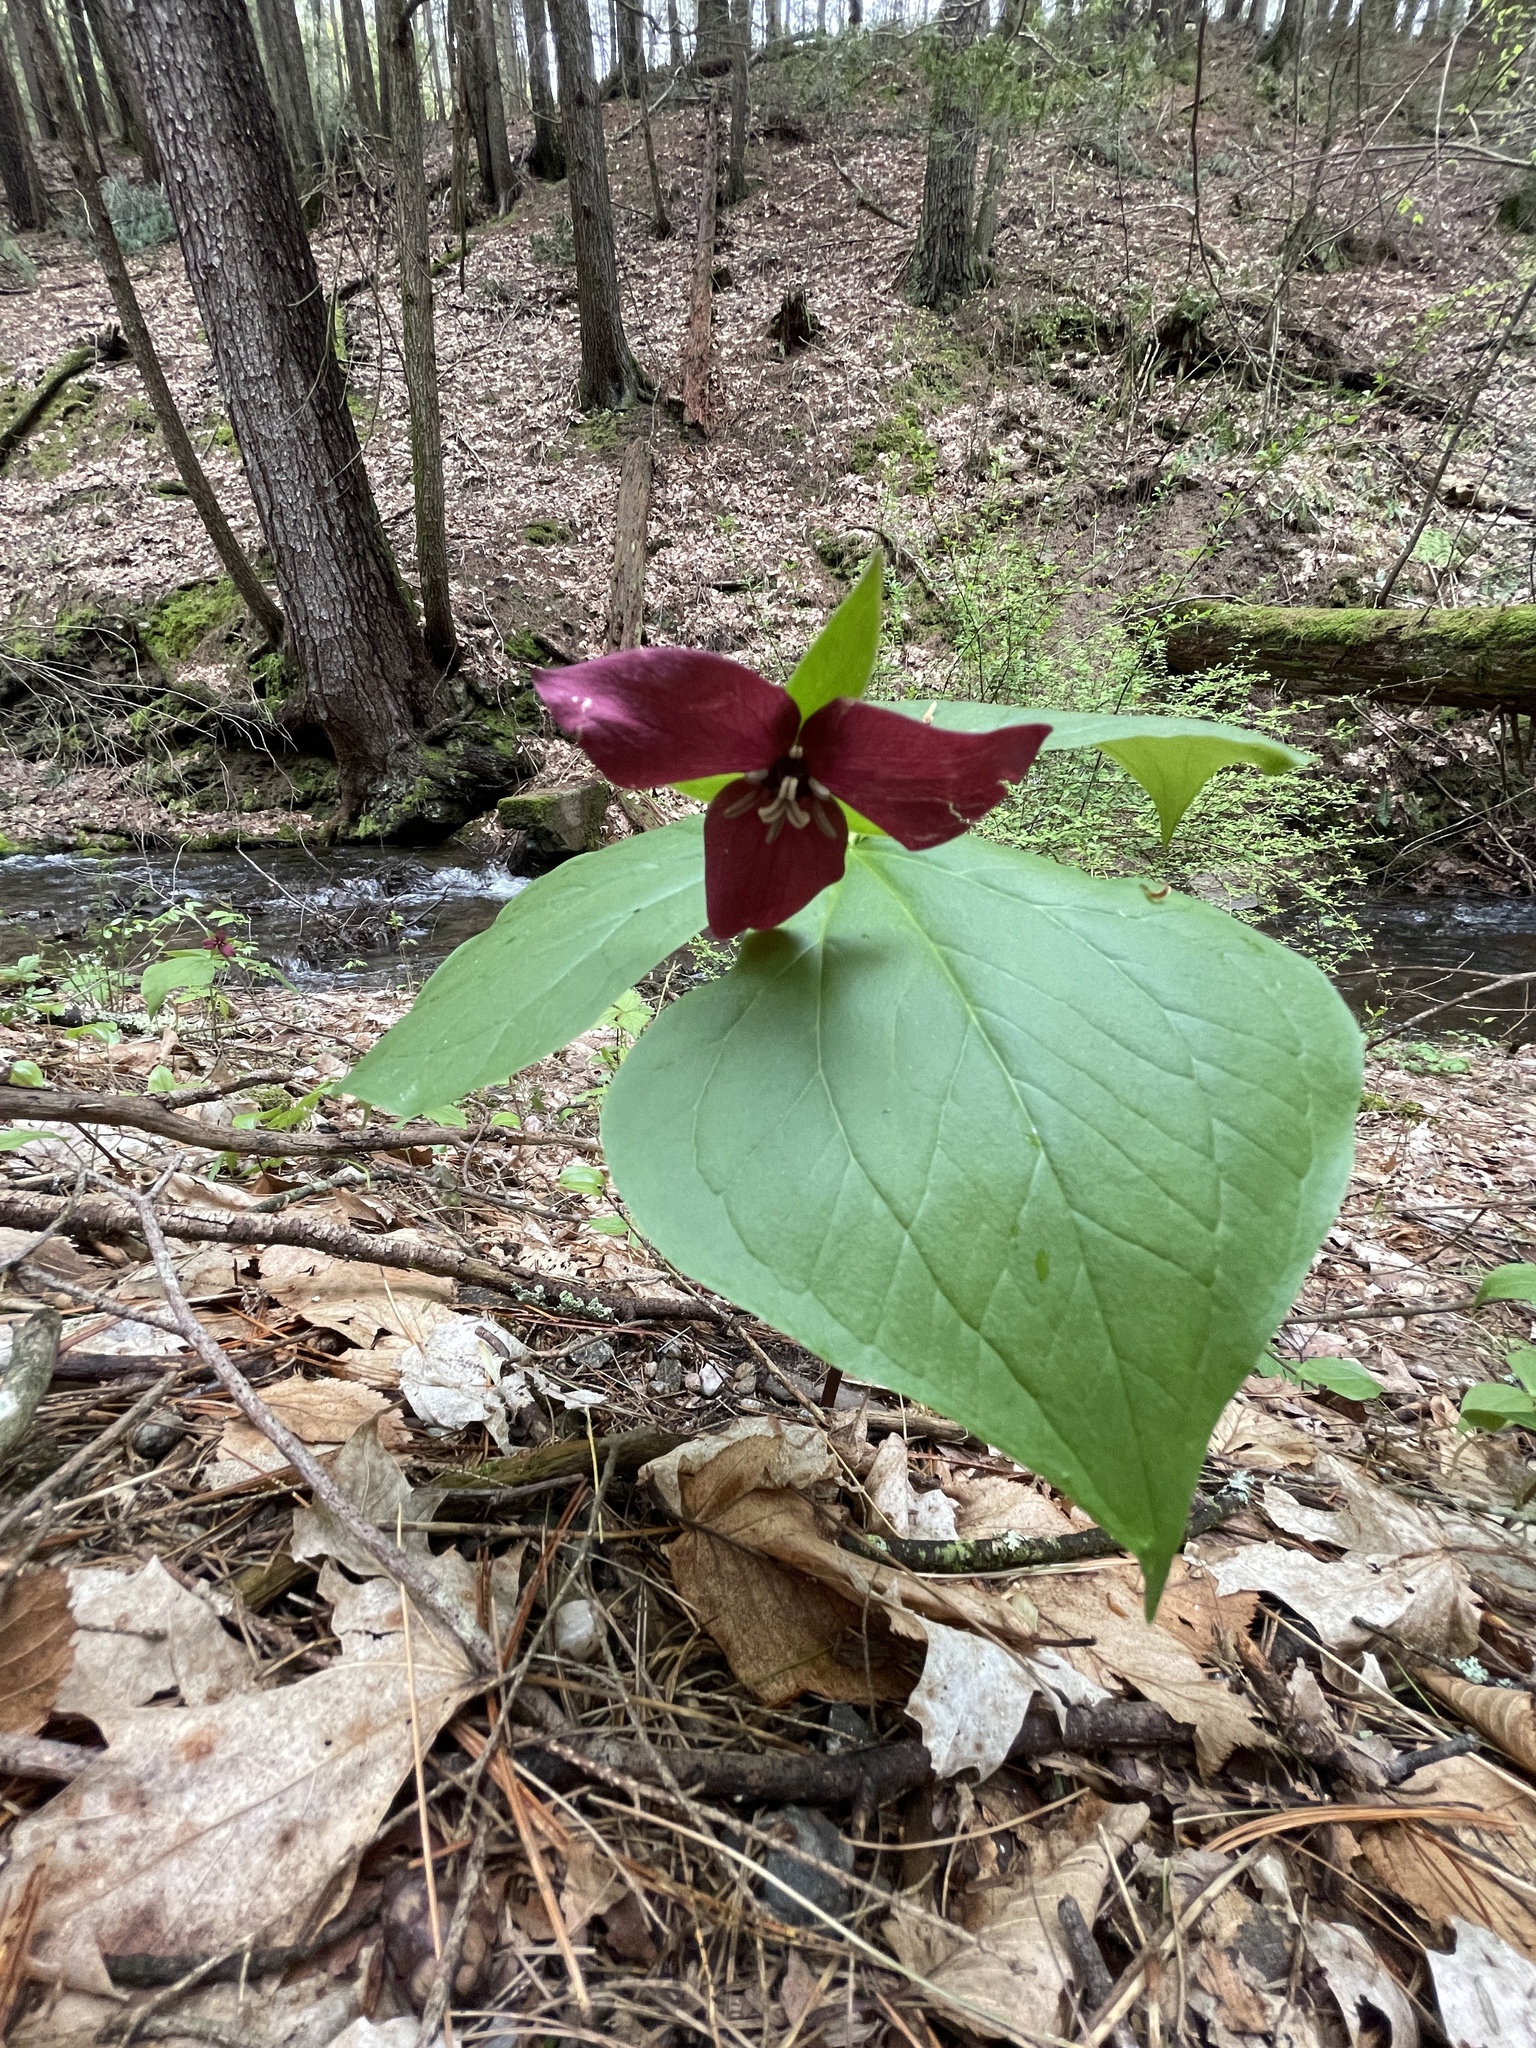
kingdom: Plantae
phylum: Tracheophyta
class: Liliopsida
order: Liliales
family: Melanthiaceae
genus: Trillium
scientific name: Trillium erectum
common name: Purple trillium
